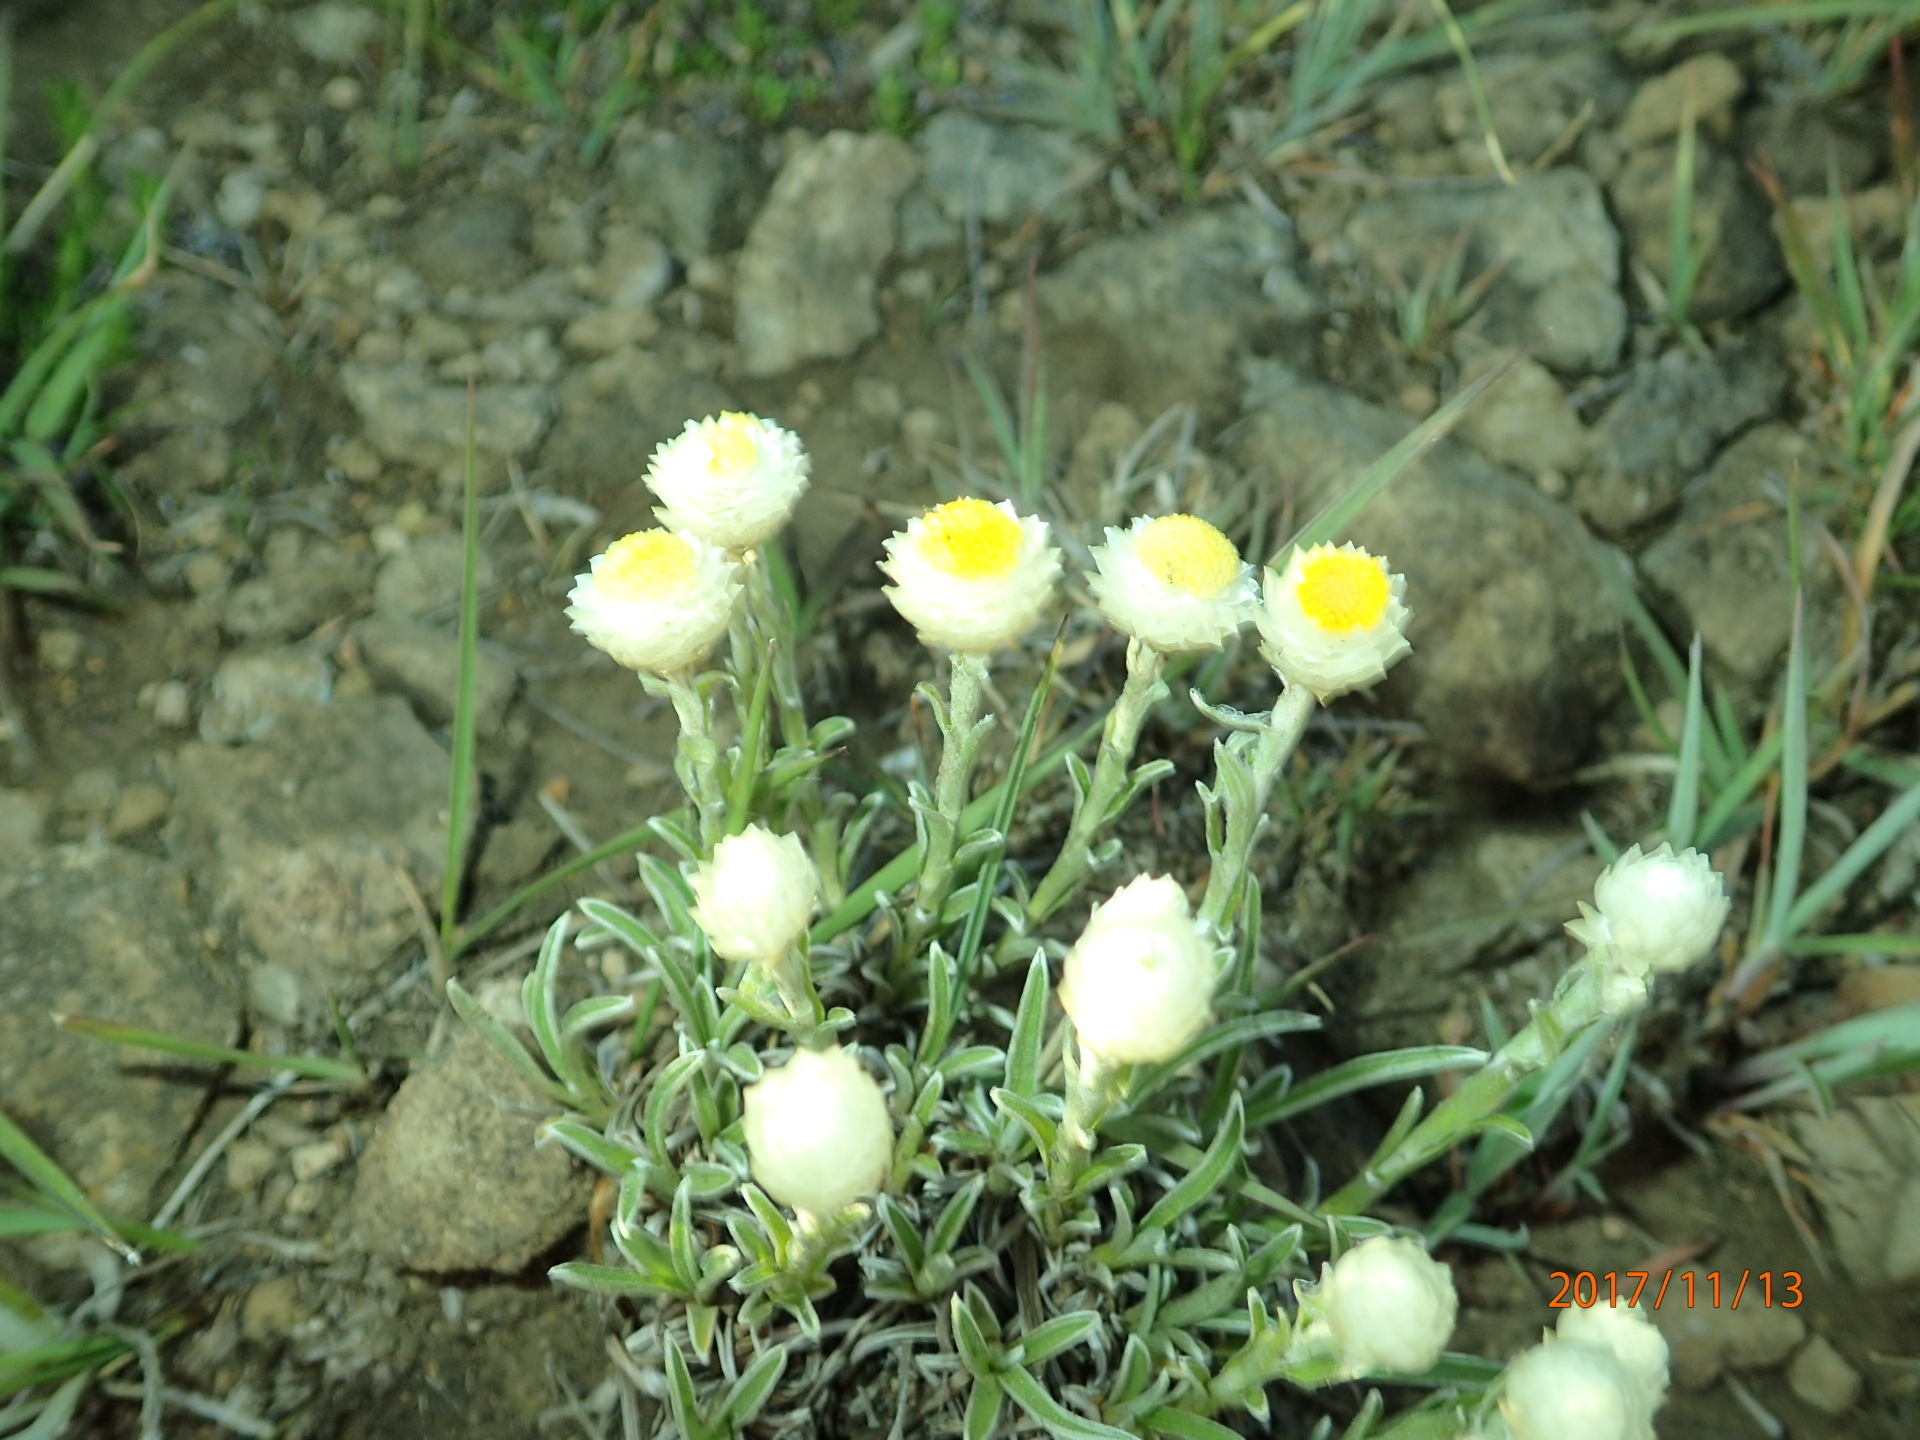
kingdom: Plantae
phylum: Tracheophyta
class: Magnoliopsida
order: Asterales
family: Asteraceae
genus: Helichrysum
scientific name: Helichrysum chionosphaerum
